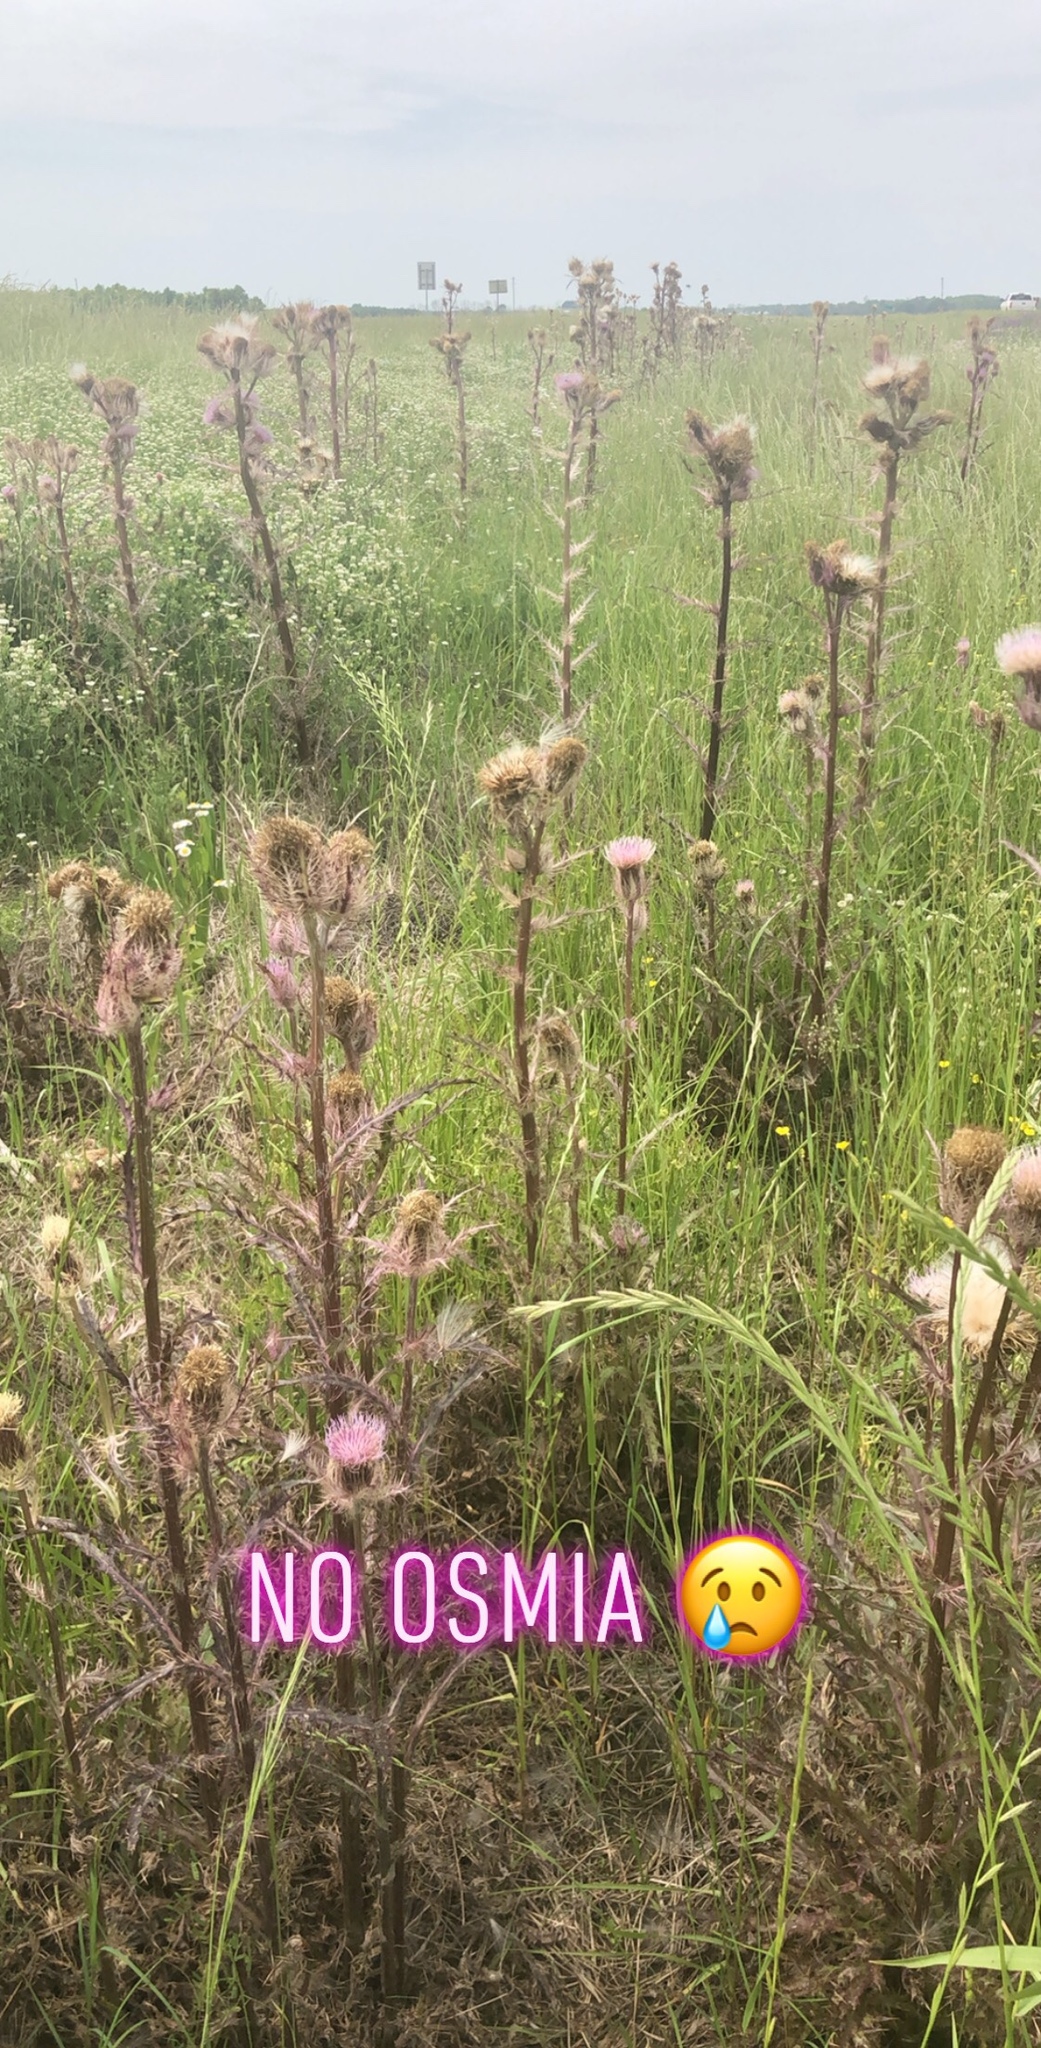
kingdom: Plantae
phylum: Tracheophyta
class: Magnoliopsida
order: Asterales
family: Asteraceae
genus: Cirsium
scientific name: Cirsium horridulum
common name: Bristly thistle
